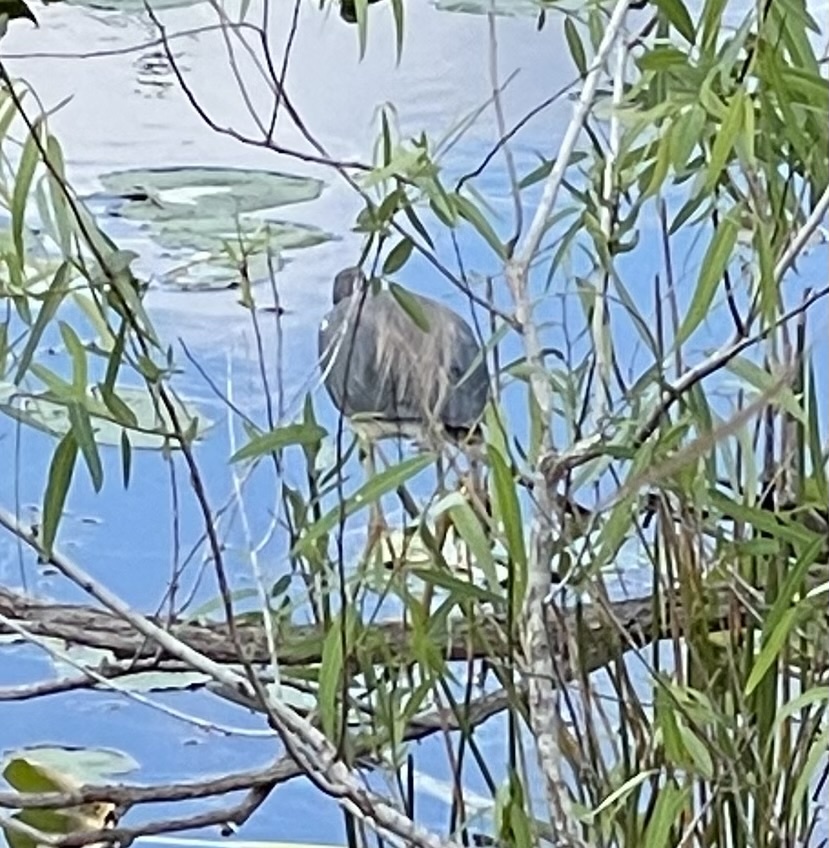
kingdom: Animalia
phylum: Chordata
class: Aves
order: Pelecaniformes
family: Ardeidae
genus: Egretta
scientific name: Egretta tricolor
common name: Tricolored heron
